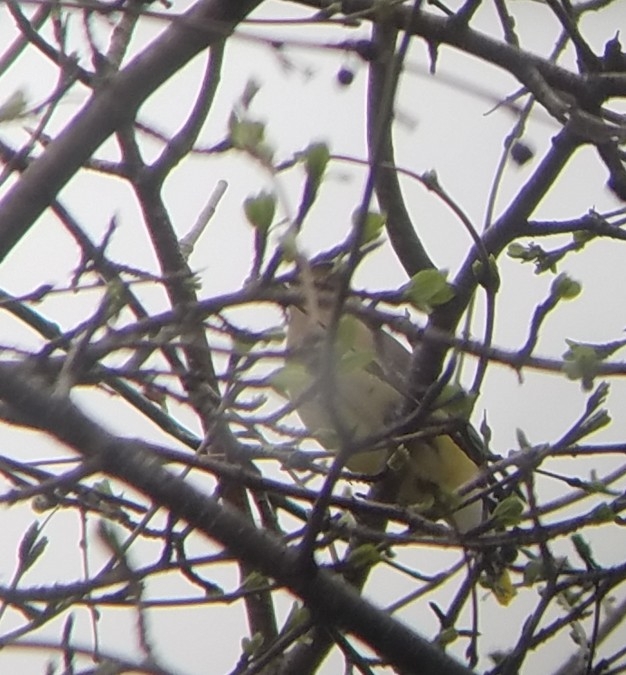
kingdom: Animalia
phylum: Chordata
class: Aves
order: Passeriformes
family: Bombycillidae
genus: Bombycilla
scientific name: Bombycilla cedrorum
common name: Cedar waxwing
